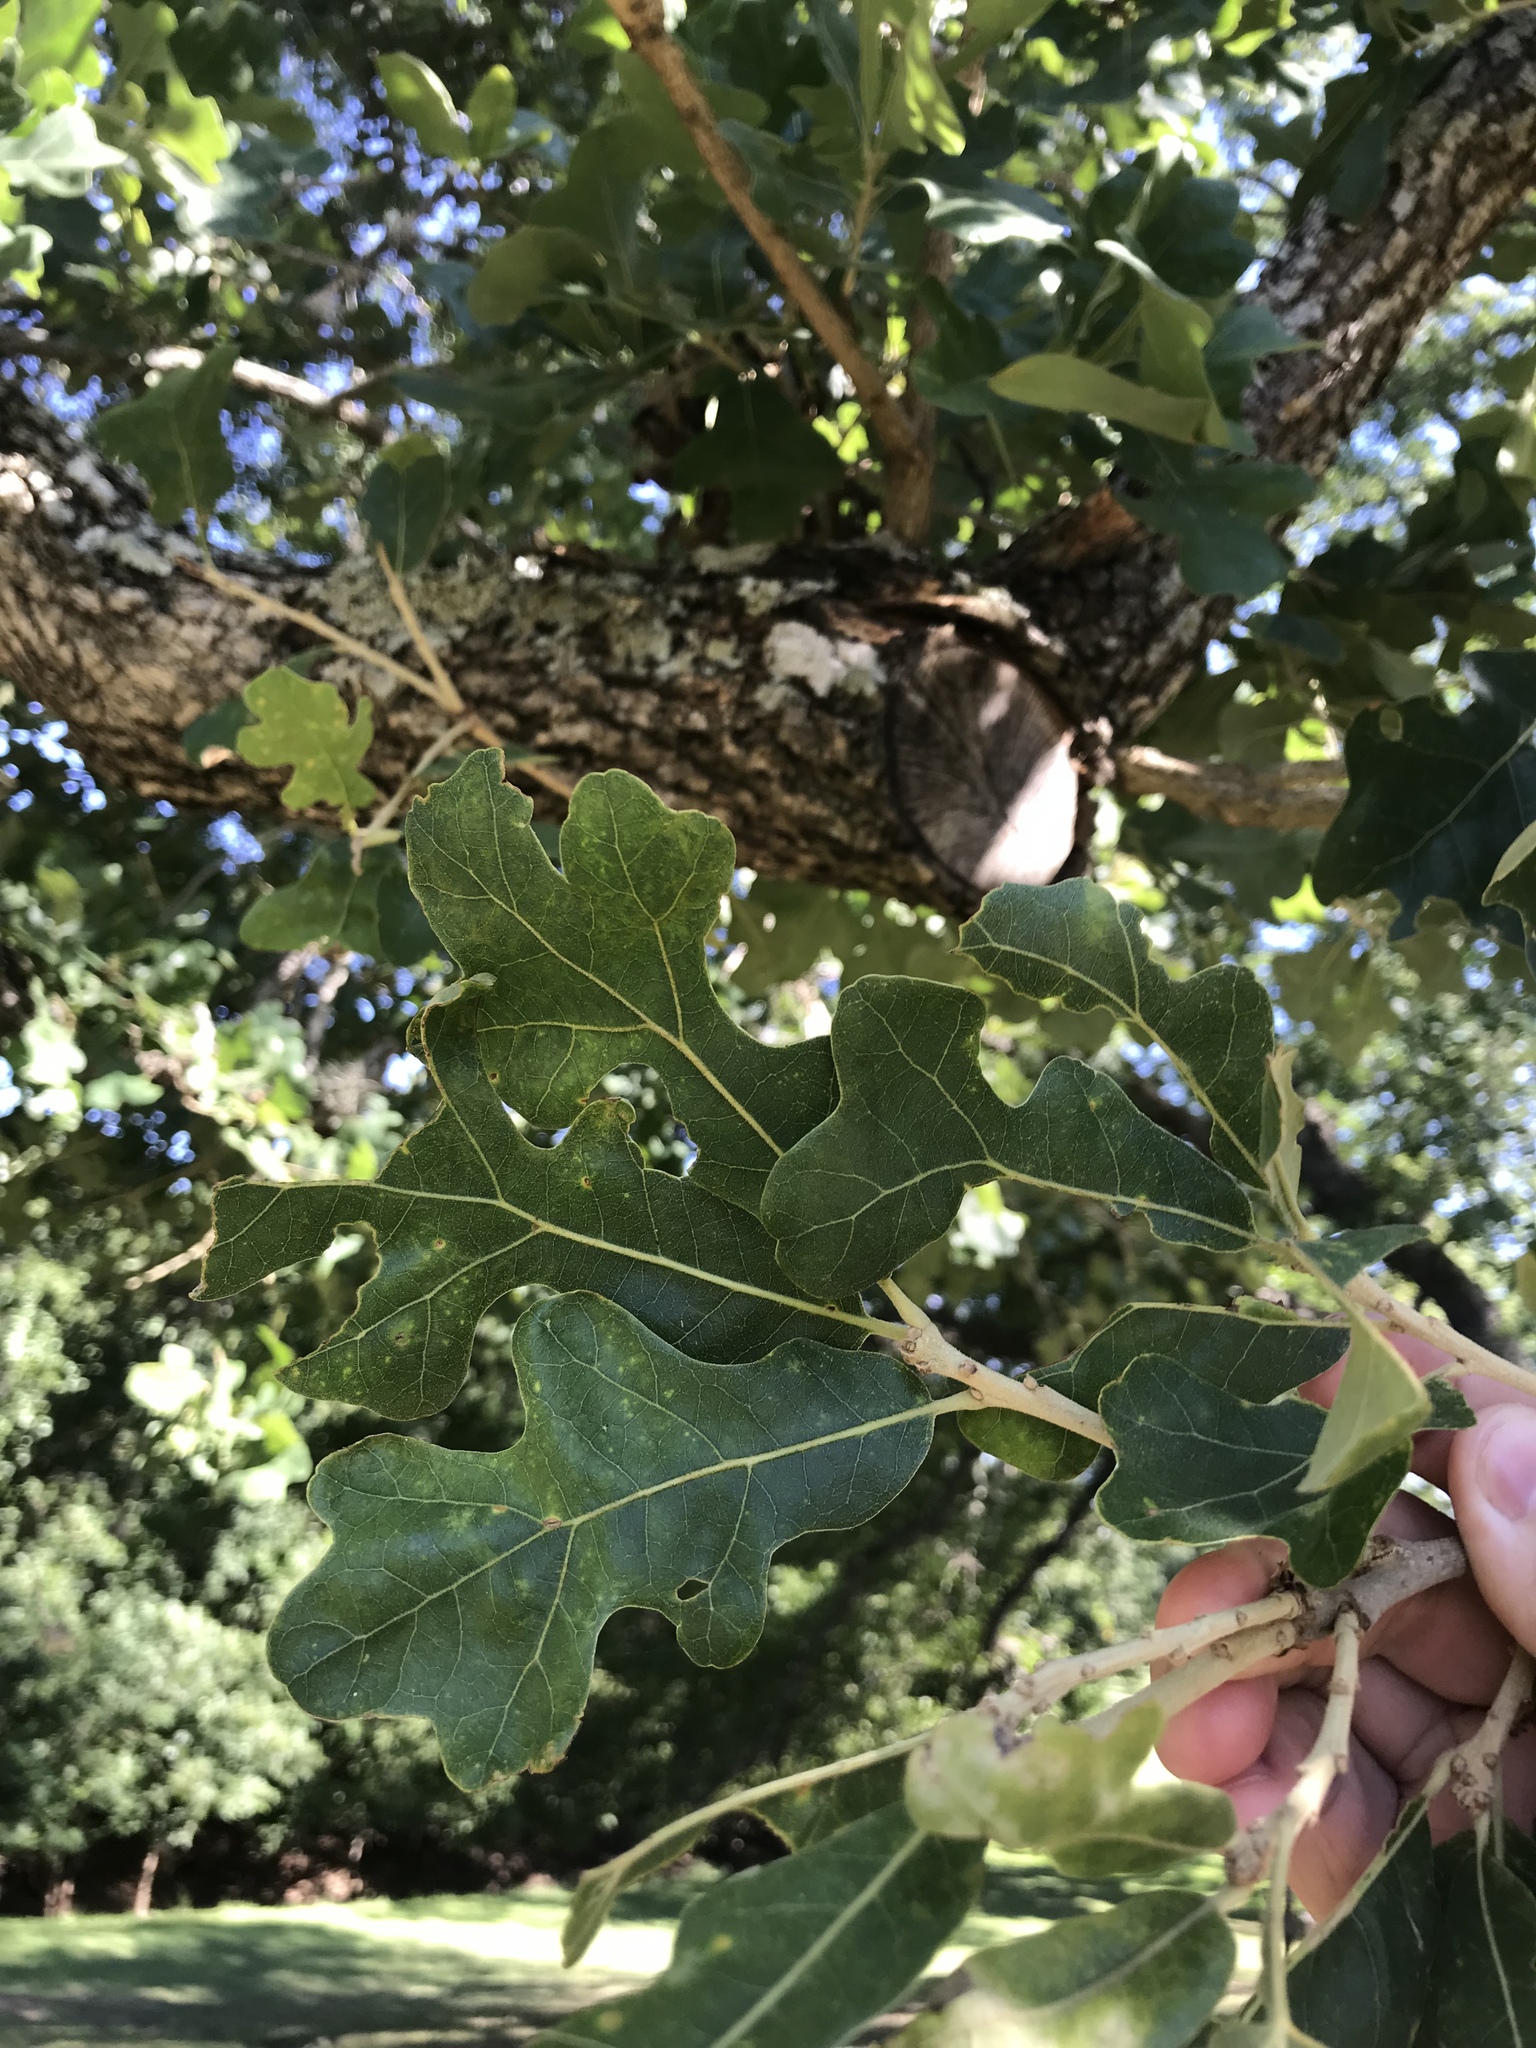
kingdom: Plantae
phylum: Tracheophyta
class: Magnoliopsida
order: Fagales
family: Fagaceae
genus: Quercus
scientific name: Quercus stellata
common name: Post oak
